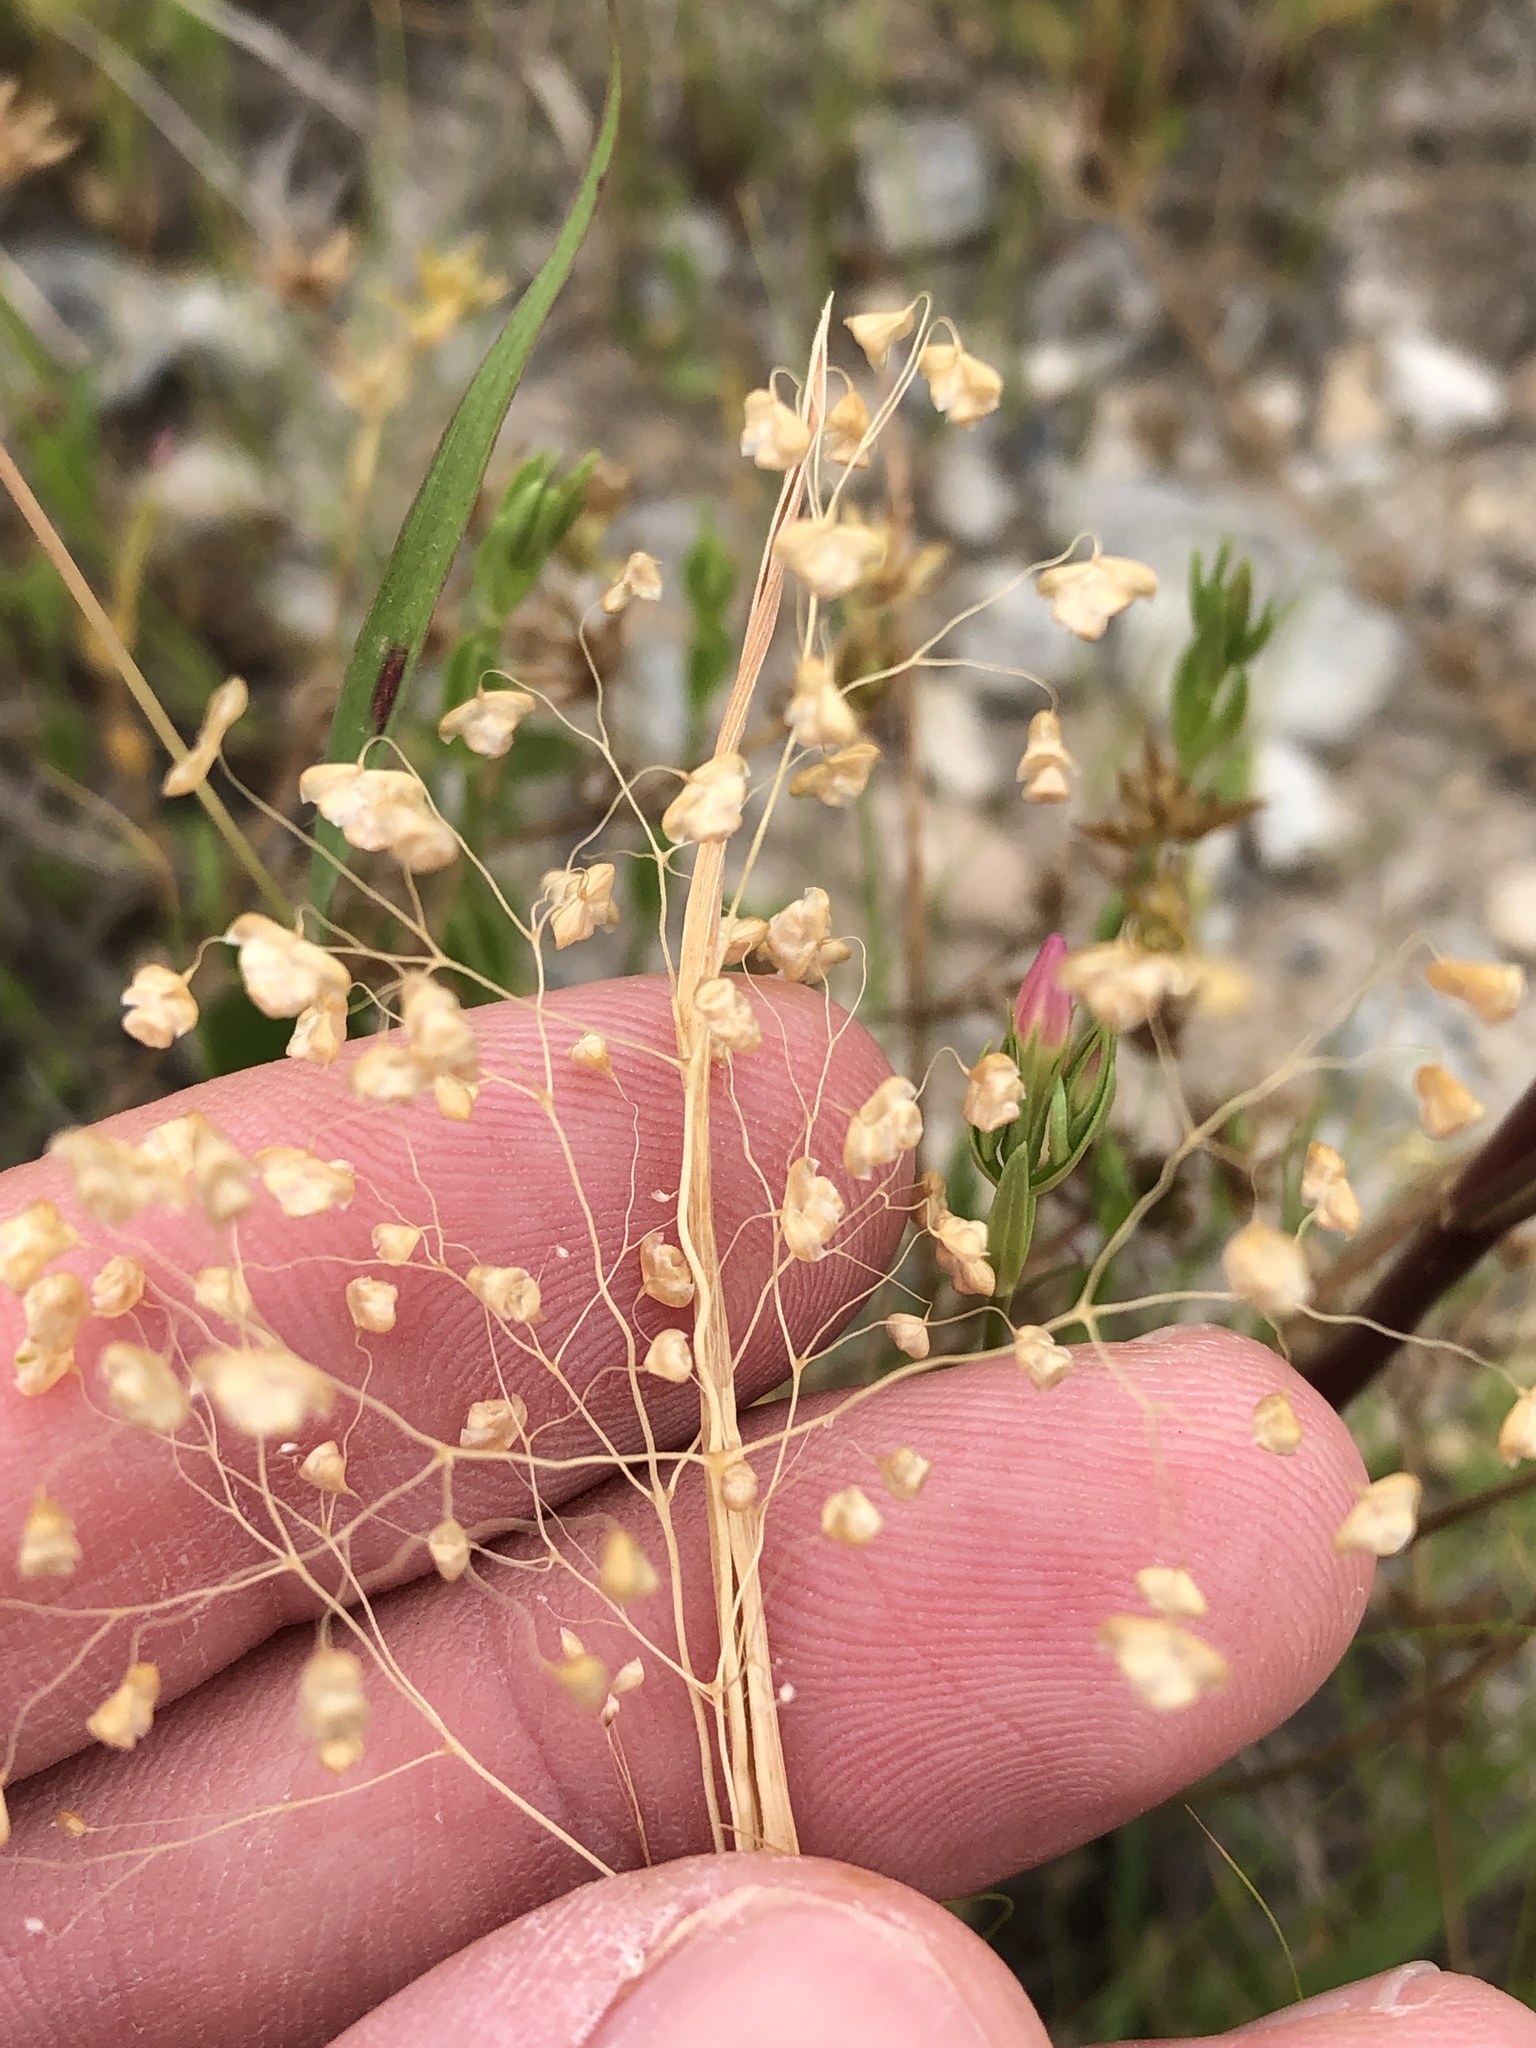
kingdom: Plantae
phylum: Tracheophyta
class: Liliopsida
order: Poales
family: Poaceae
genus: Briza
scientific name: Briza minor
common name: Lesser quaking-grass
